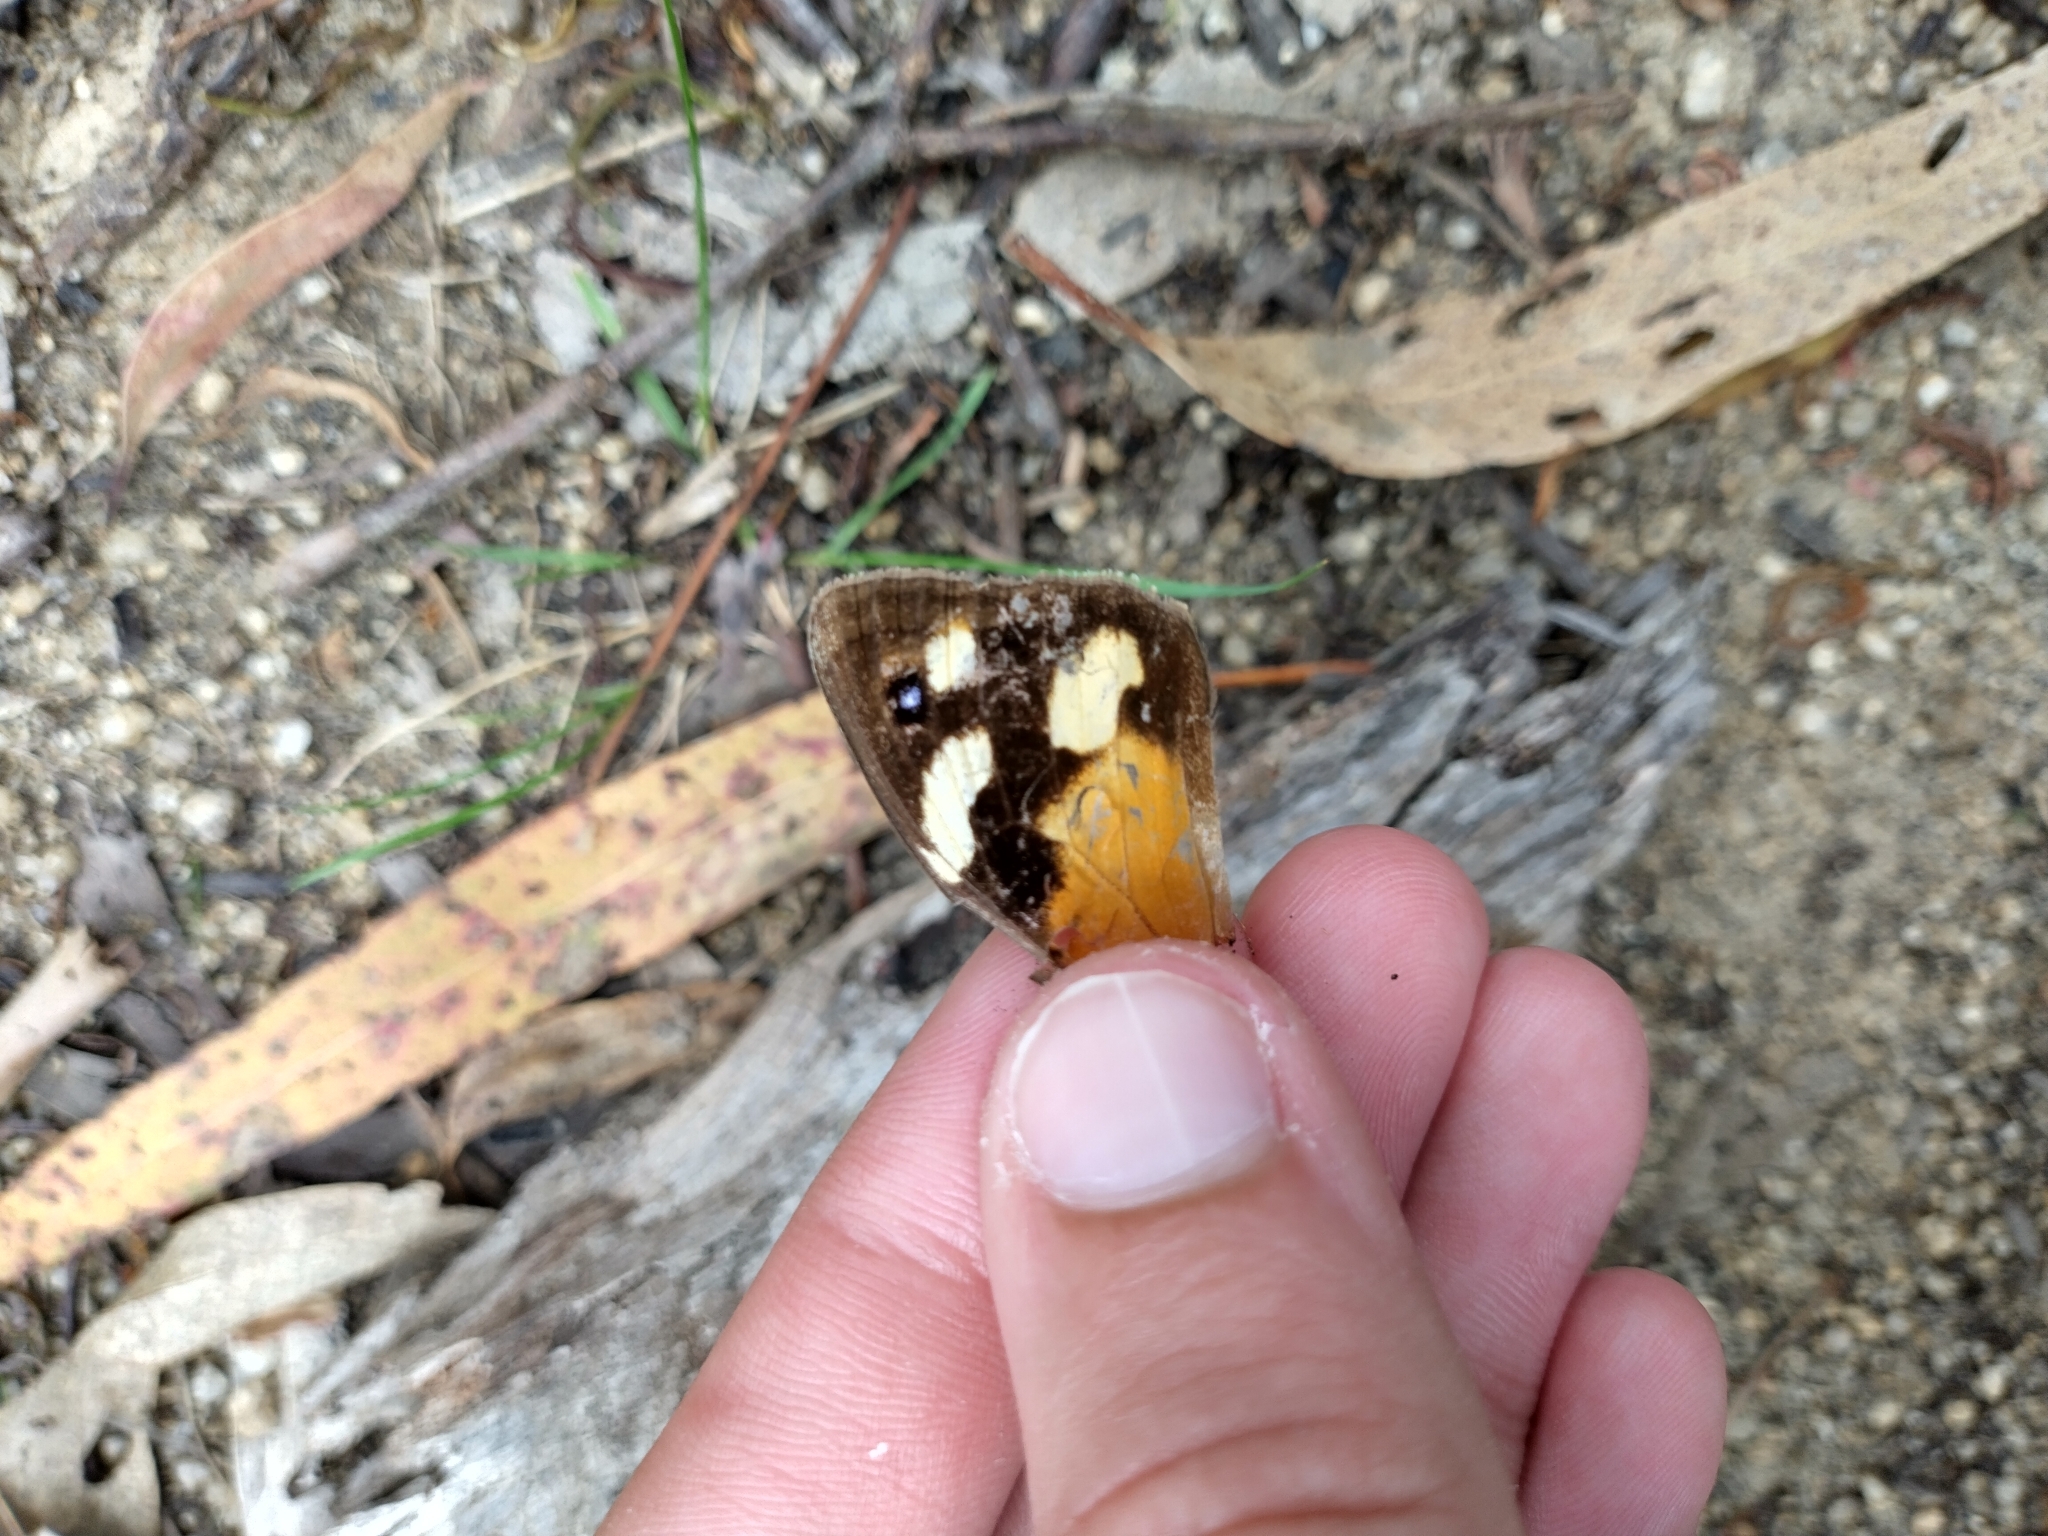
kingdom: Animalia
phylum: Arthropoda
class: Insecta
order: Lepidoptera
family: Nymphalidae
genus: Heteronympha
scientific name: Heteronympha merope
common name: Common brown
